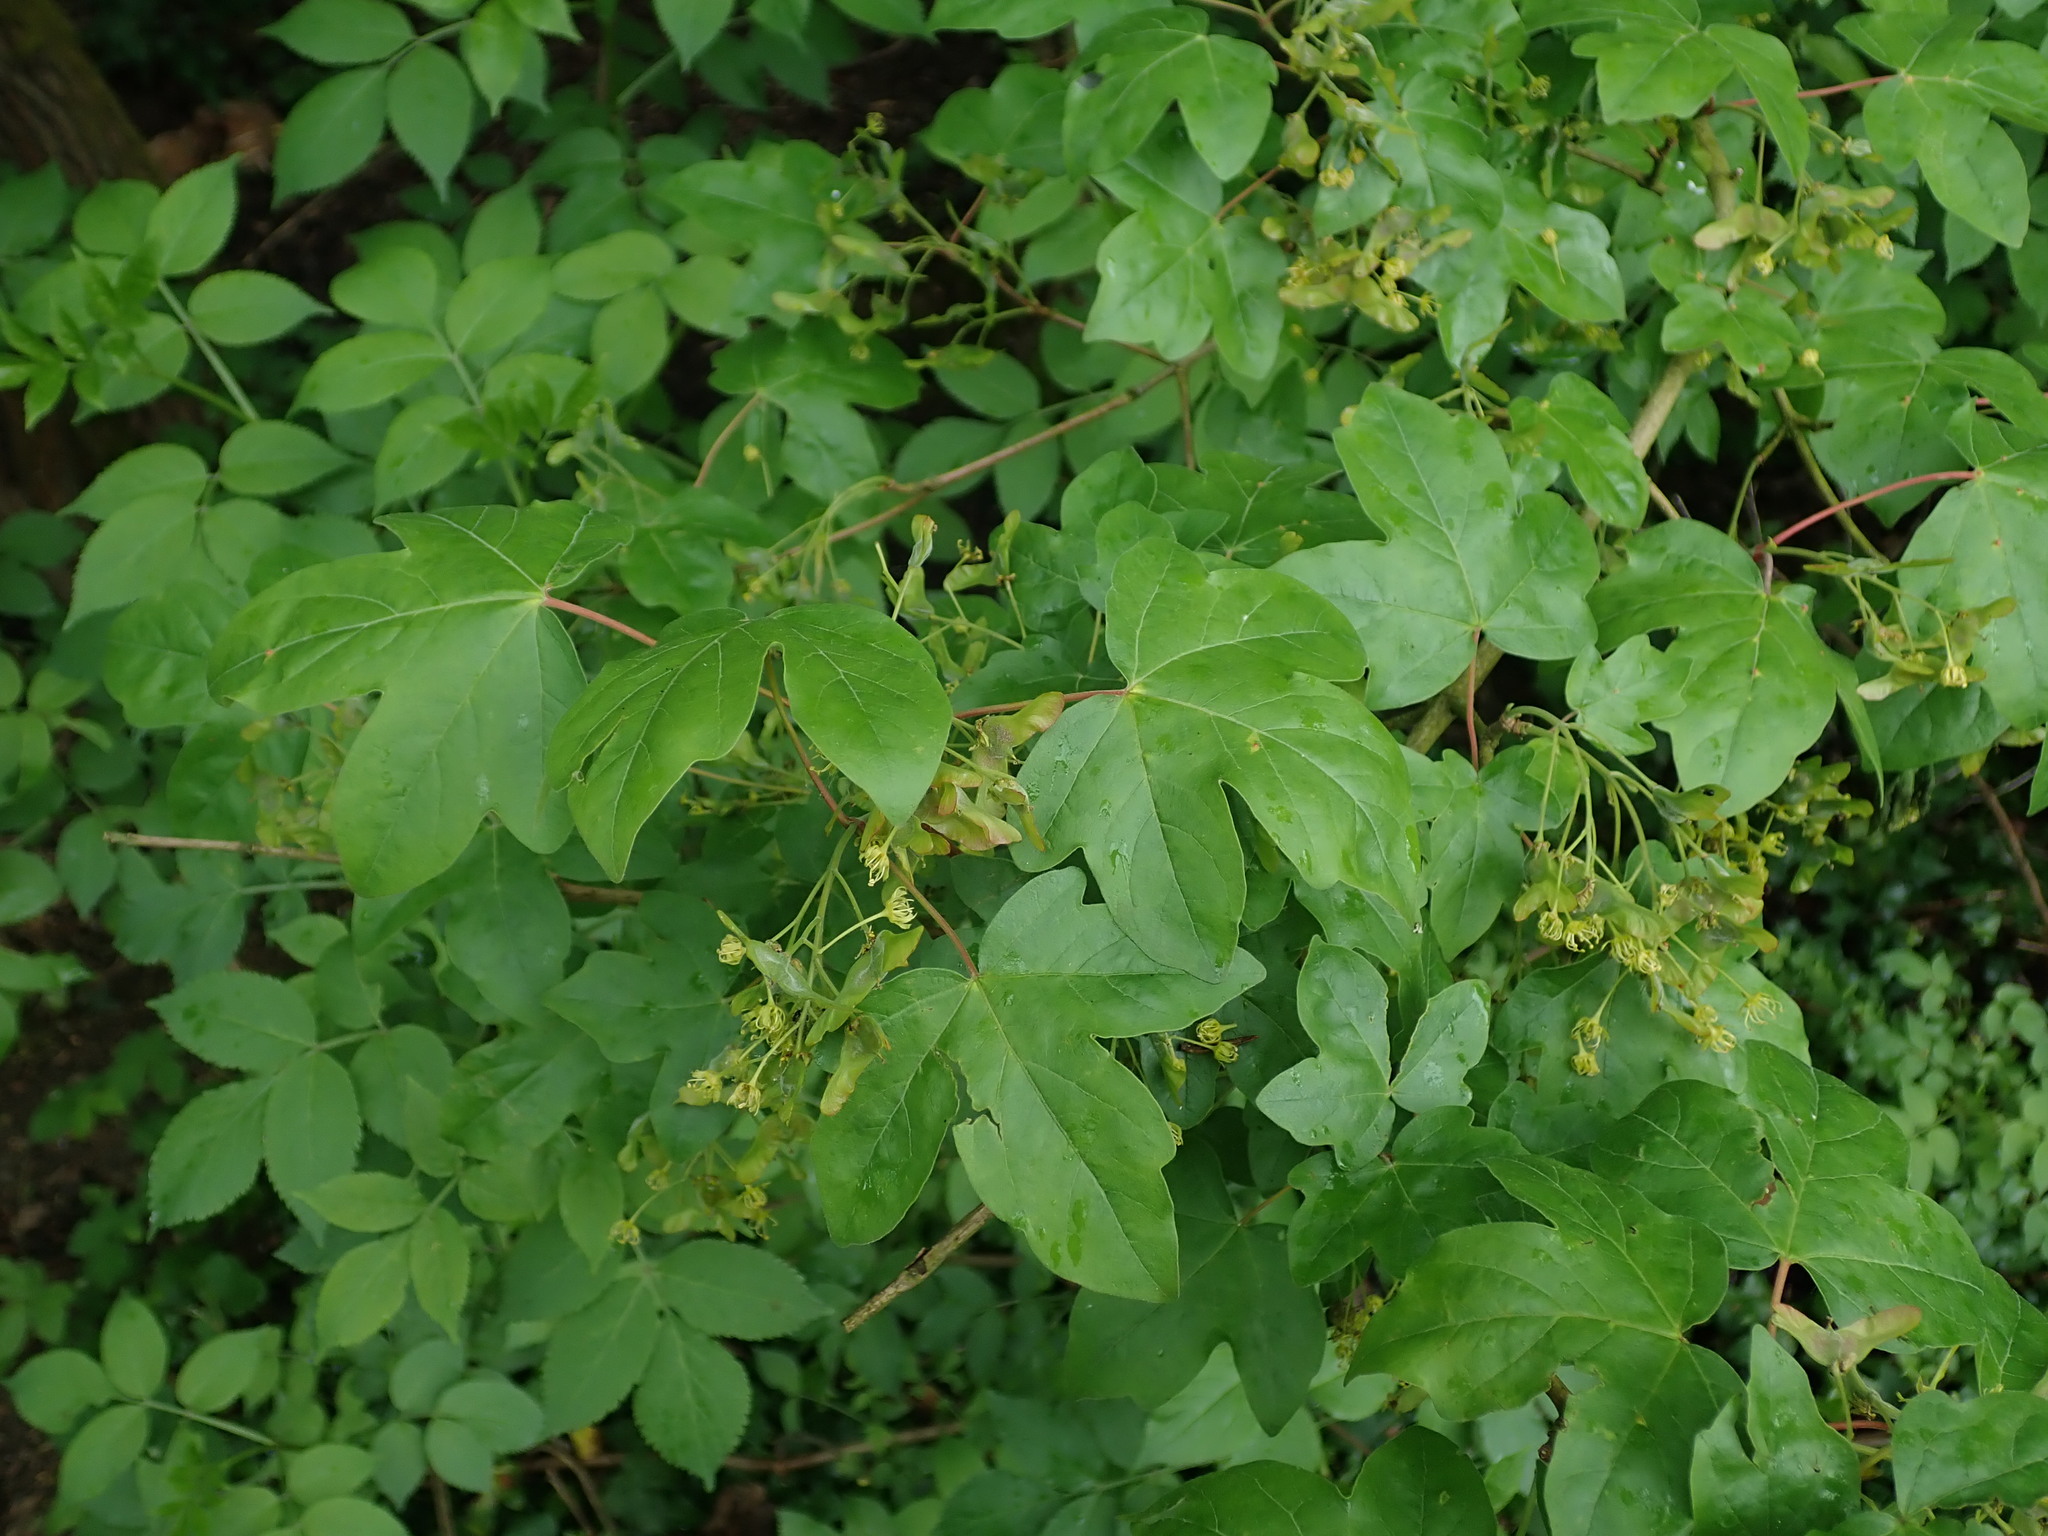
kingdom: Plantae
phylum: Tracheophyta
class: Magnoliopsida
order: Sapindales
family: Sapindaceae
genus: Acer
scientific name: Acer campestre
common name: Field maple
